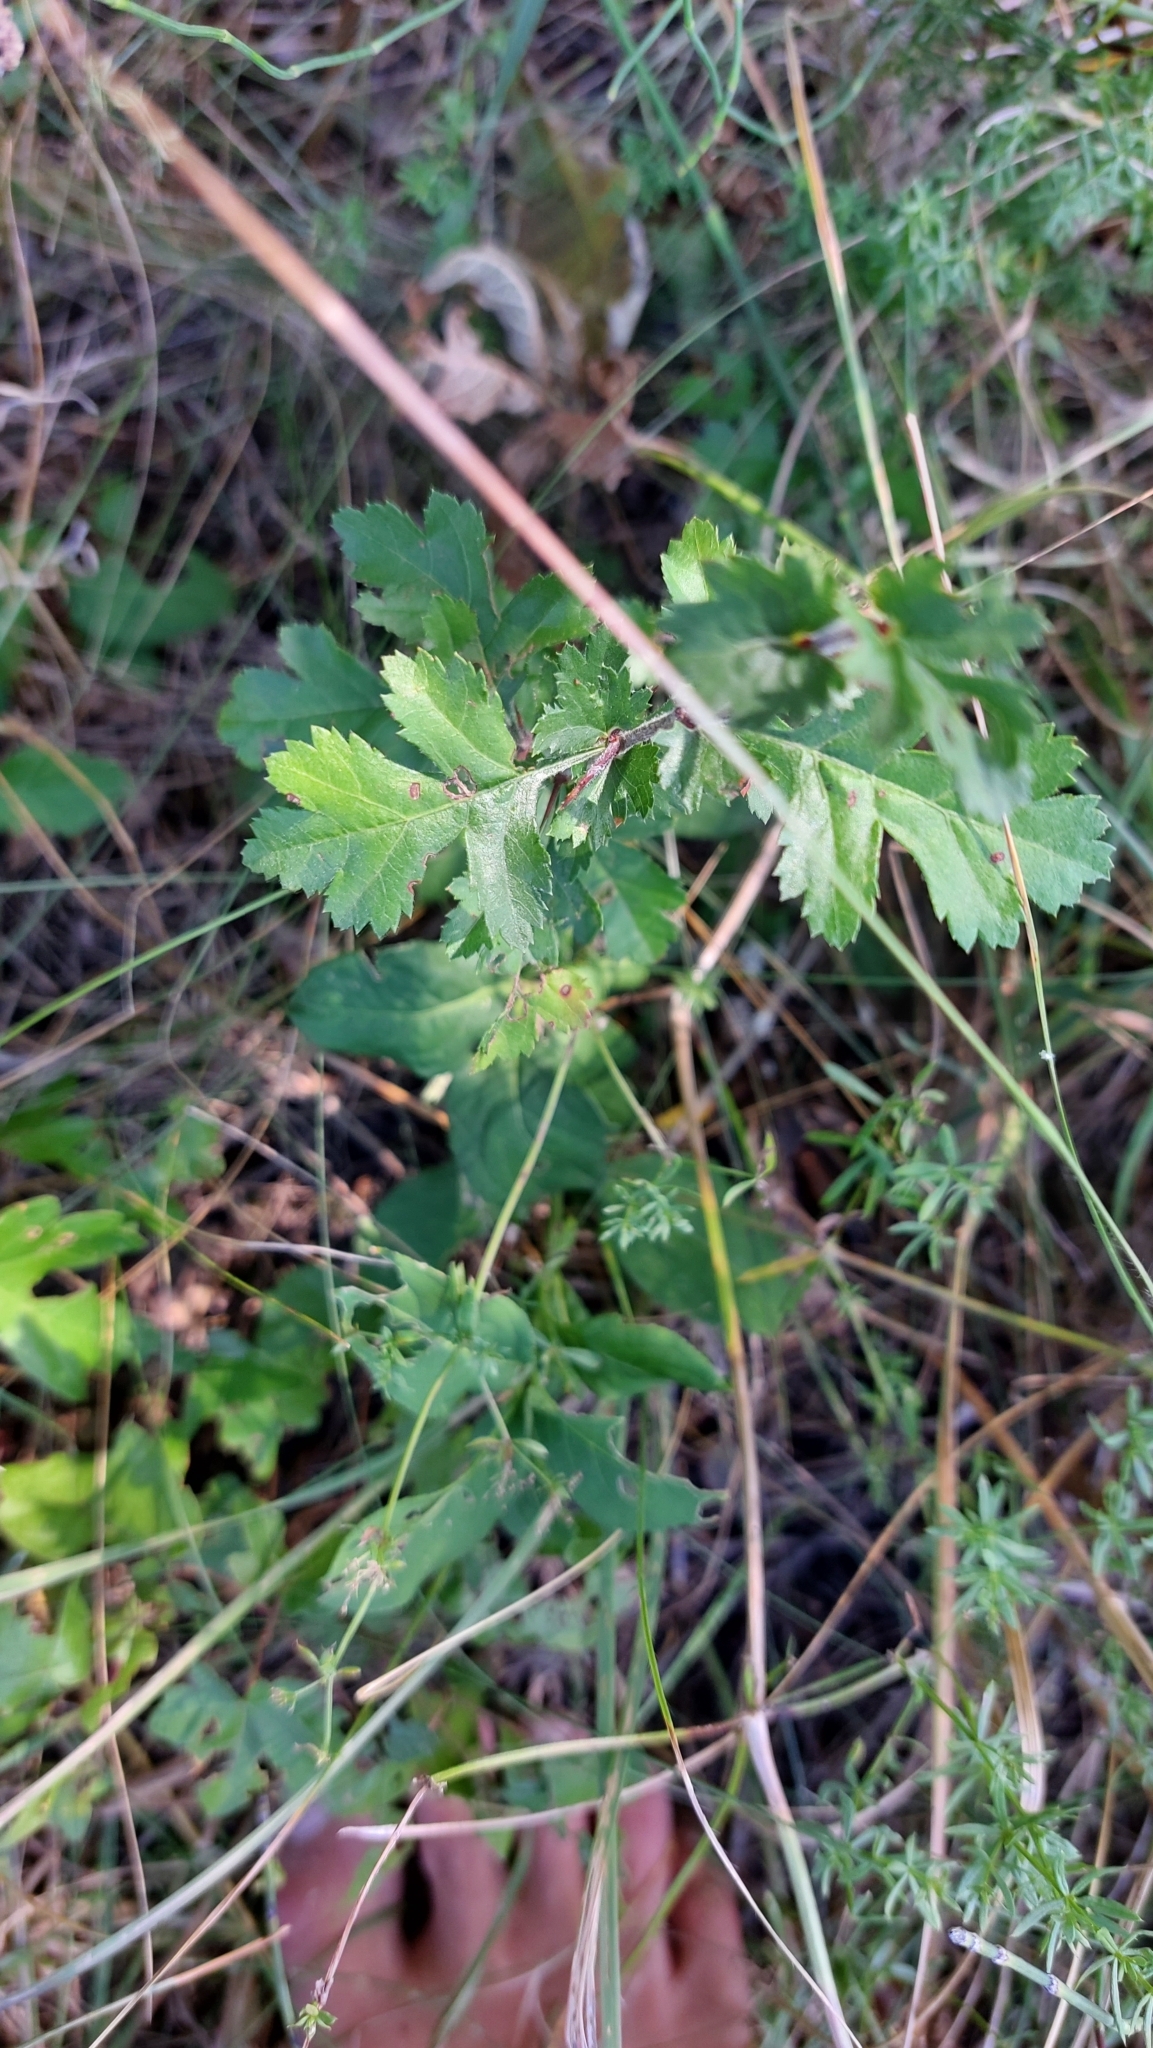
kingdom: Plantae
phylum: Tracheophyta
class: Magnoliopsida
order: Rosales
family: Rosaceae
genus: Crataegus
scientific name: Crataegus monogyna
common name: Hawthorn
